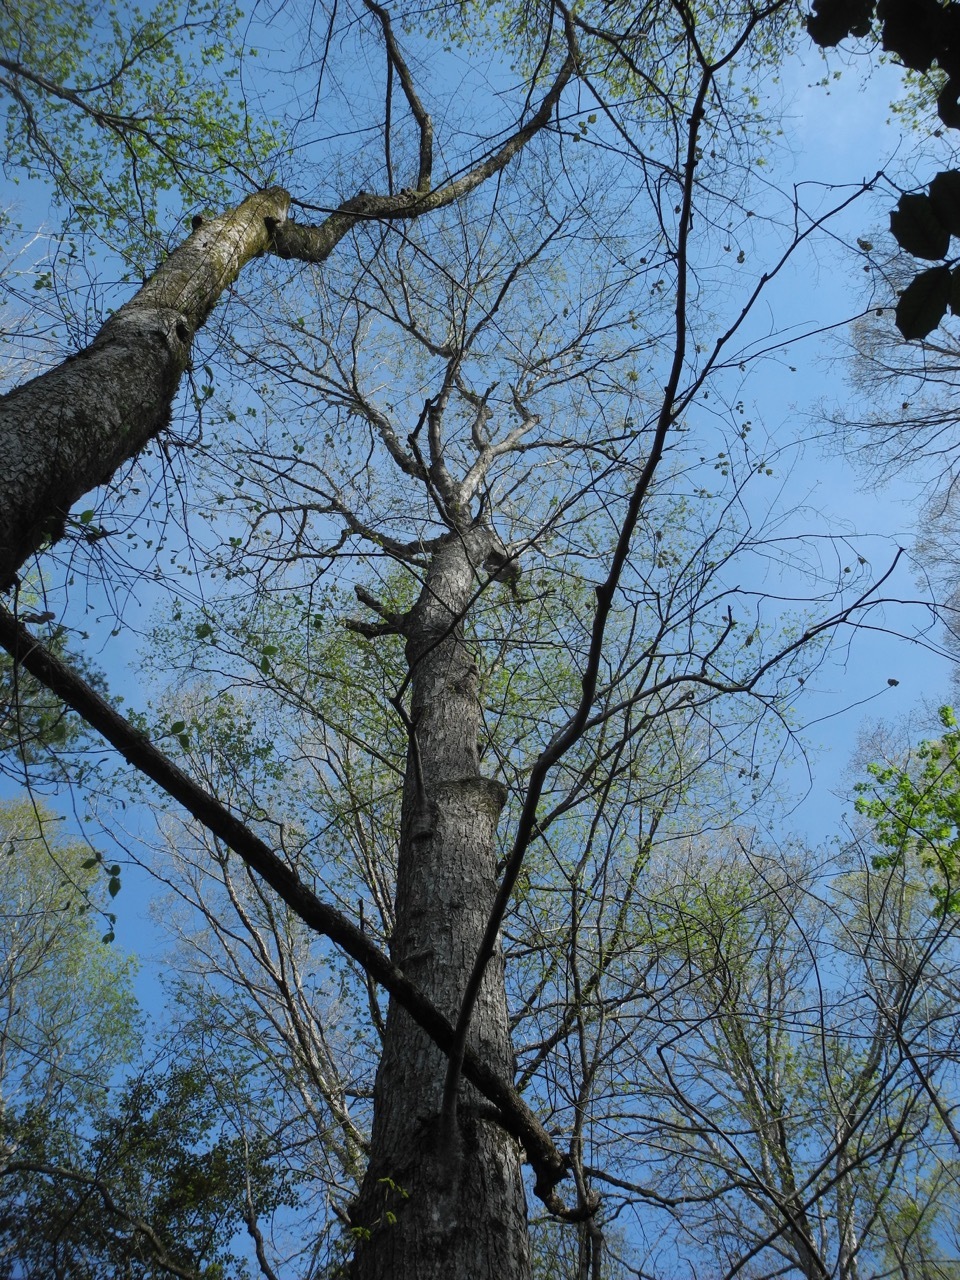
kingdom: Plantae
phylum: Tracheophyta
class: Magnoliopsida
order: Sapindales
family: Sapindaceae
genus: Acer
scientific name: Acer floridanum
